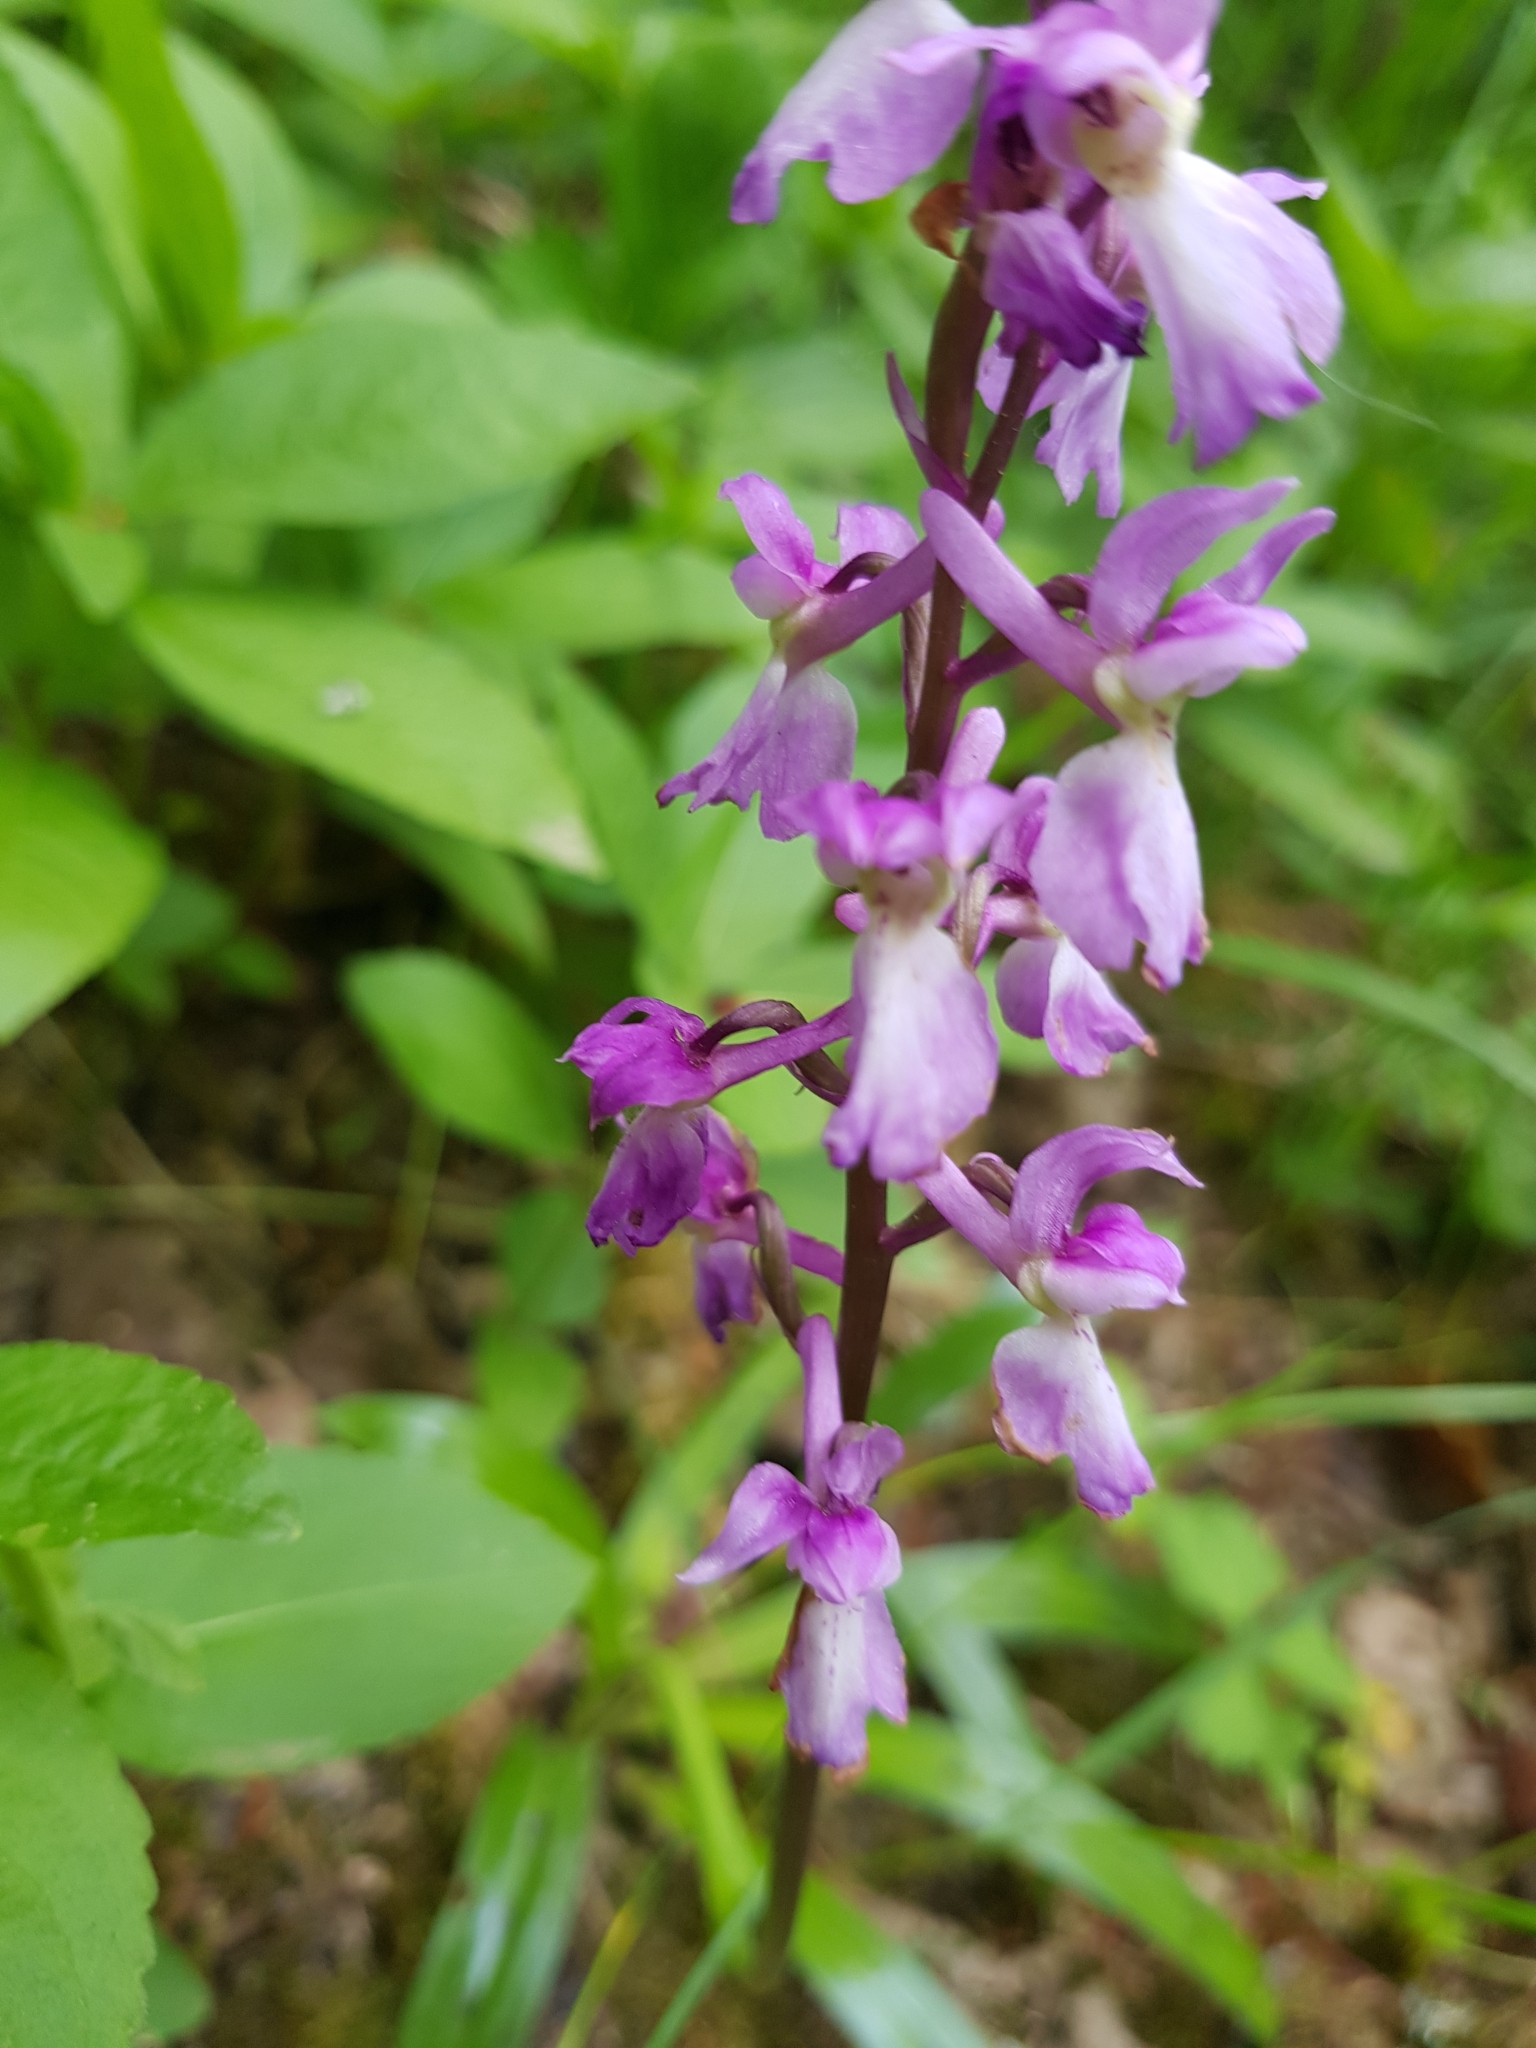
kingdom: Plantae
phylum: Tracheophyta
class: Liliopsida
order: Asparagales
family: Orchidaceae
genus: Orchis
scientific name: Orchis mascula
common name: Early-purple orchid
